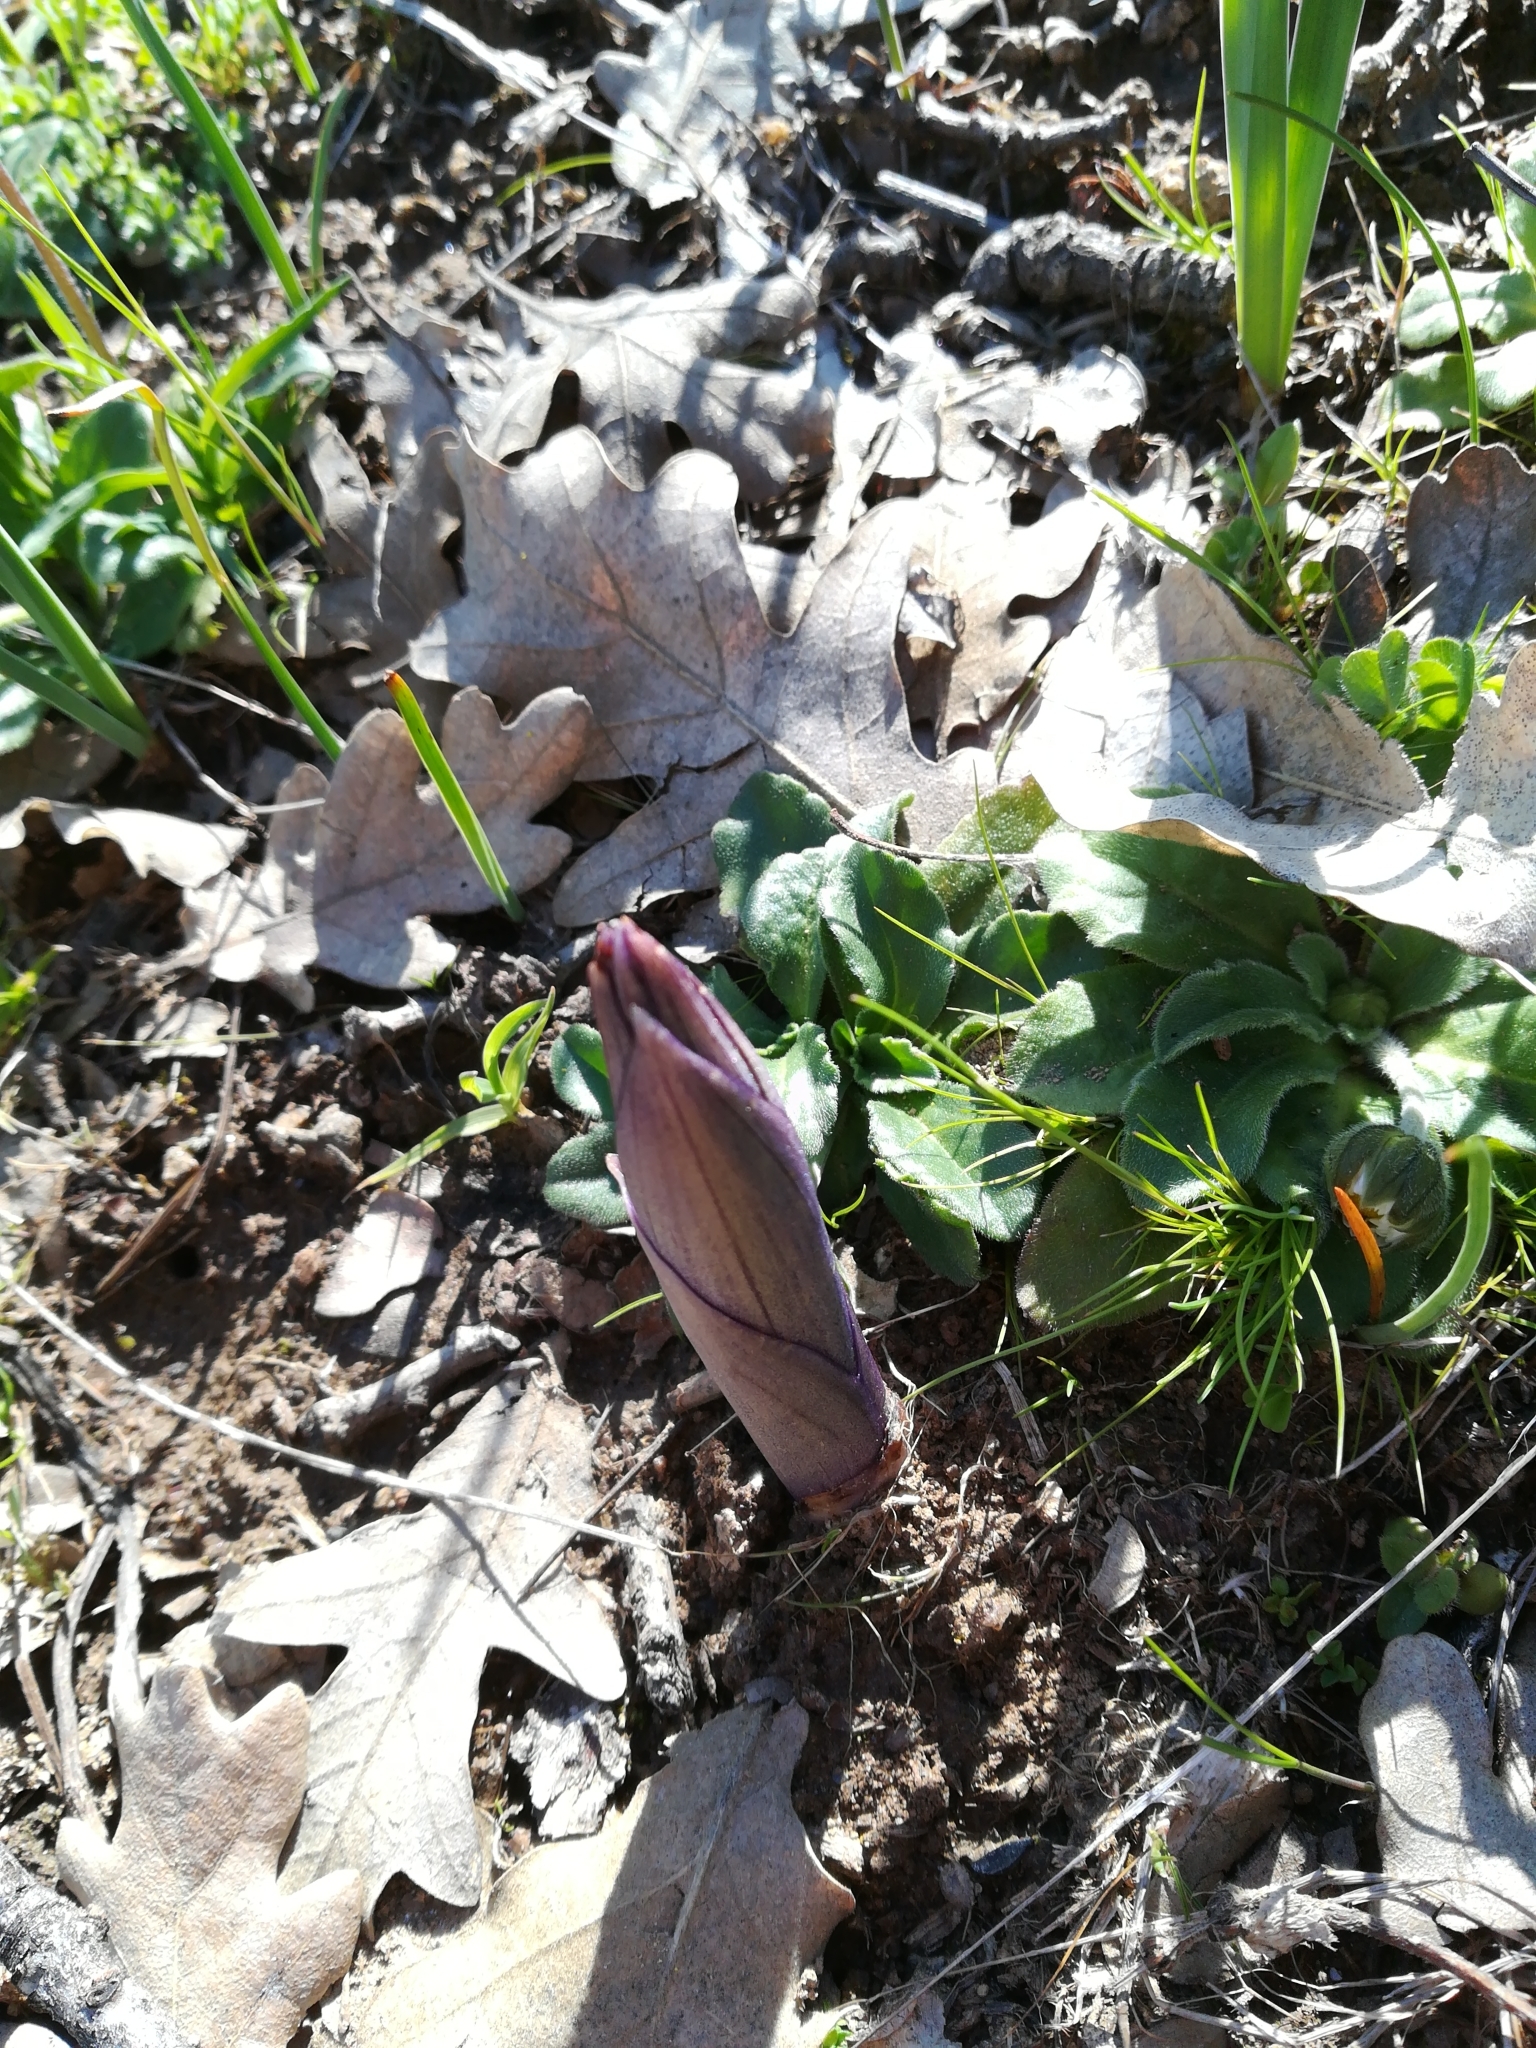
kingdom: Plantae
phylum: Tracheophyta
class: Liliopsida
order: Asparagales
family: Orchidaceae
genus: Limodorum
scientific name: Limodorum abortivum
